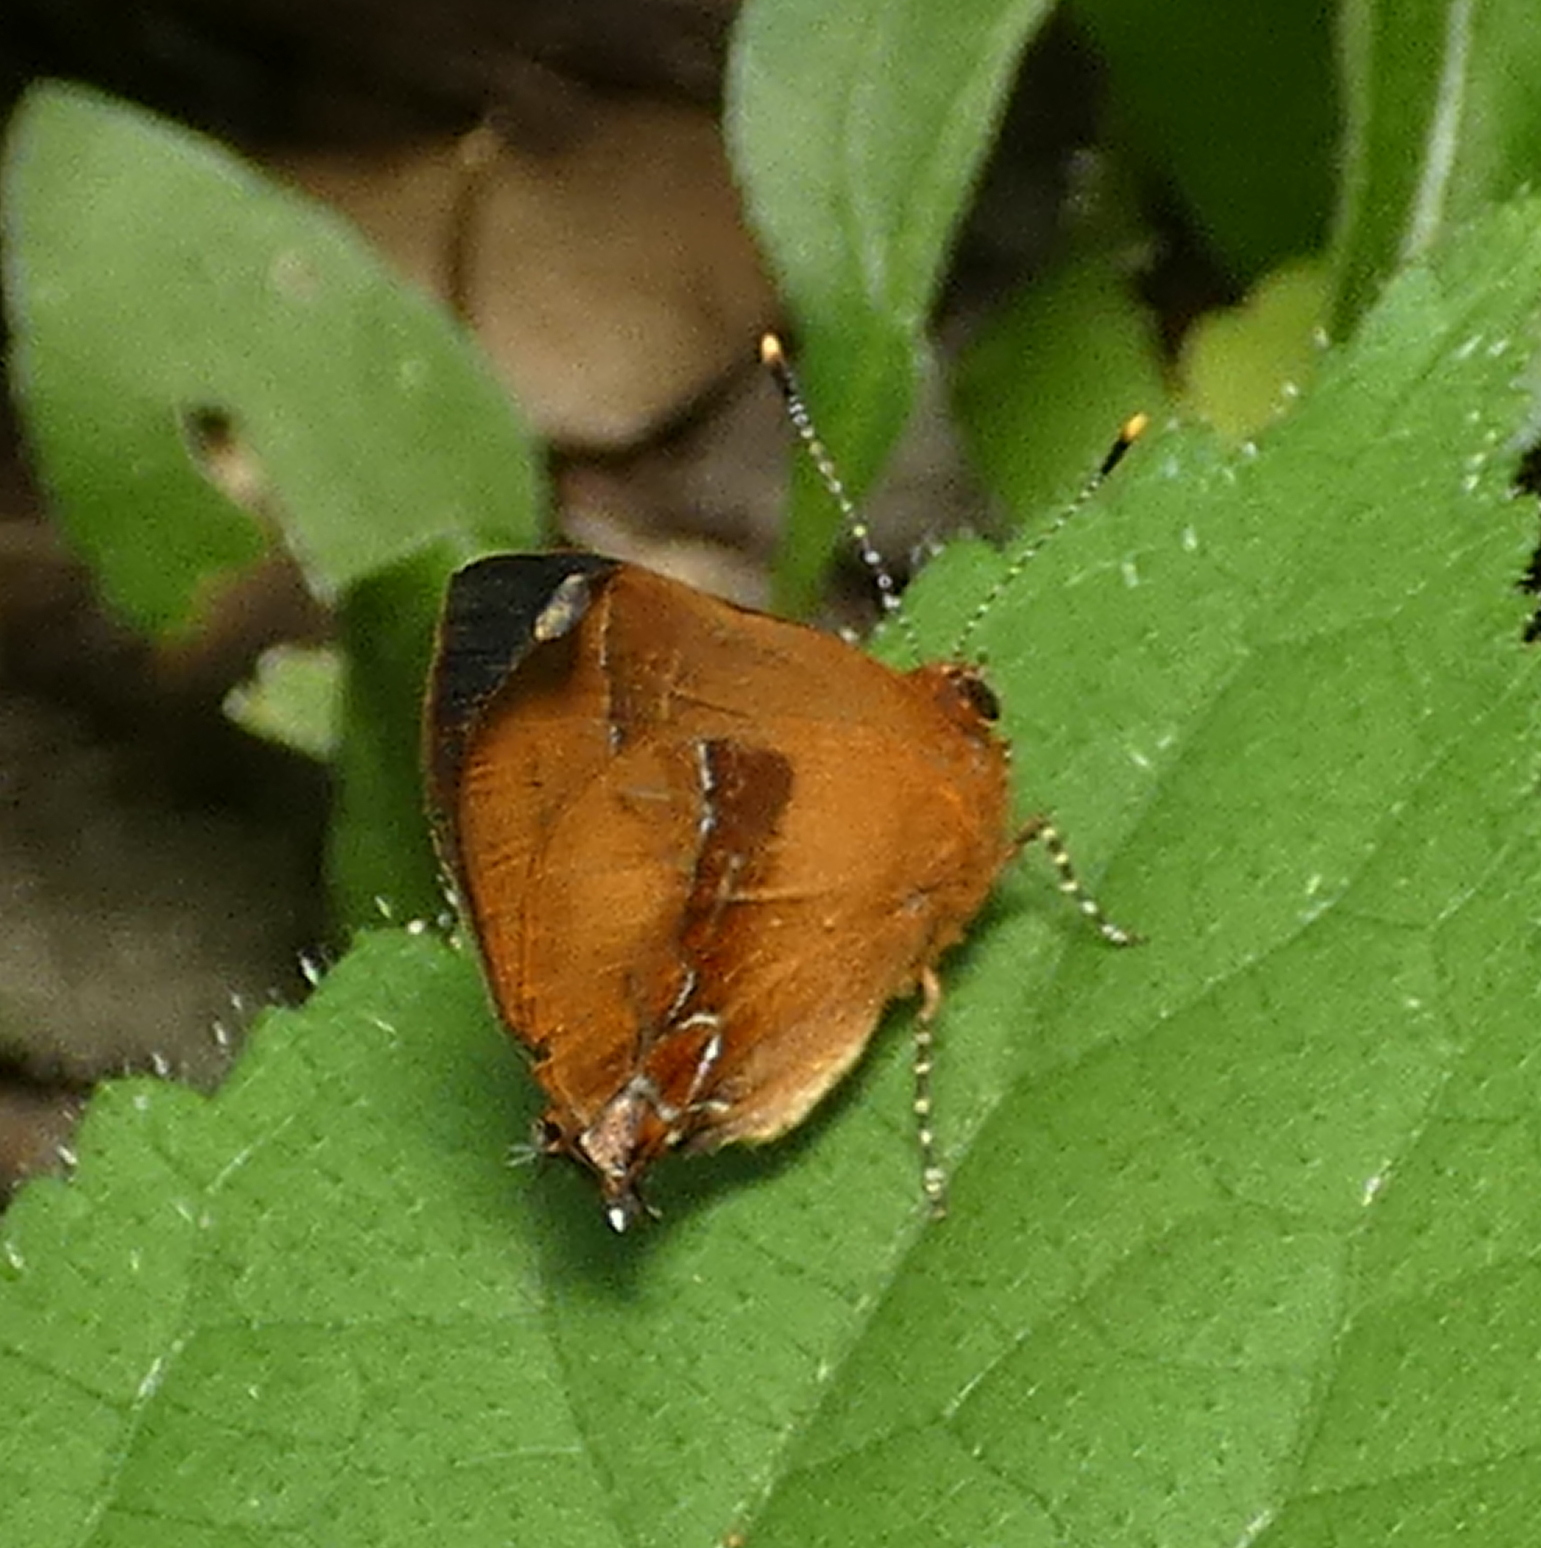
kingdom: Animalia
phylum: Arthropoda
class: Insecta
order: Lepidoptera
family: Lycaenidae
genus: Thecla
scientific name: Thecla demonassa
